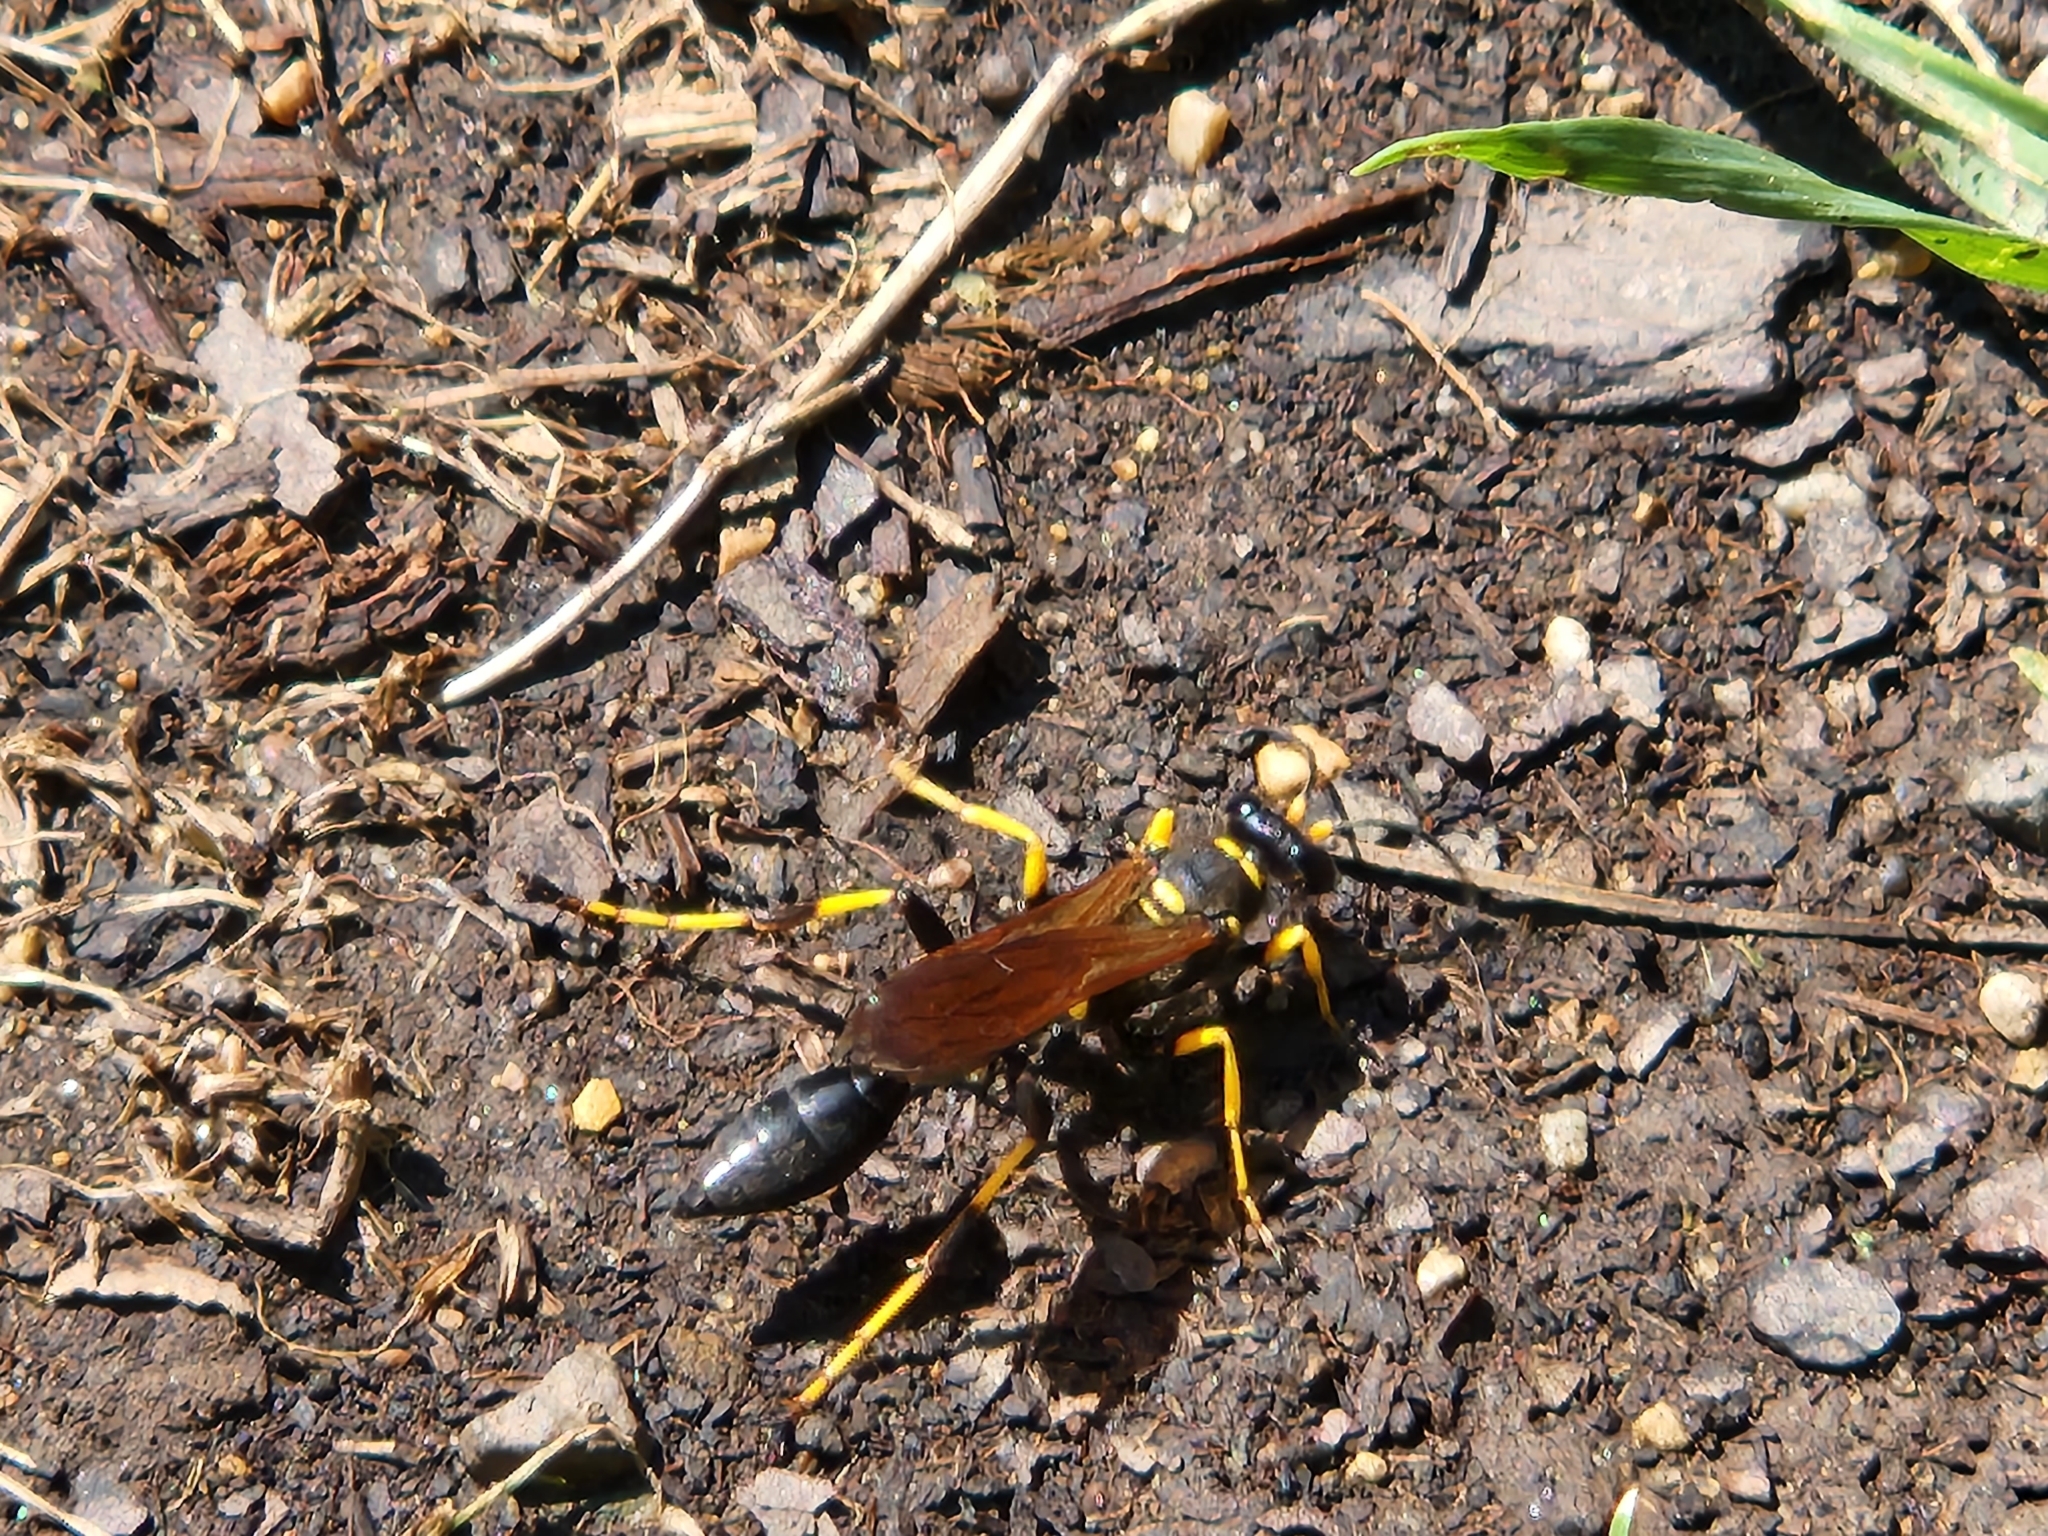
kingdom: Animalia
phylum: Arthropoda
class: Insecta
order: Hymenoptera
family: Sphecidae
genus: Sceliphron
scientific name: Sceliphron caementarium
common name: Mud dauber
